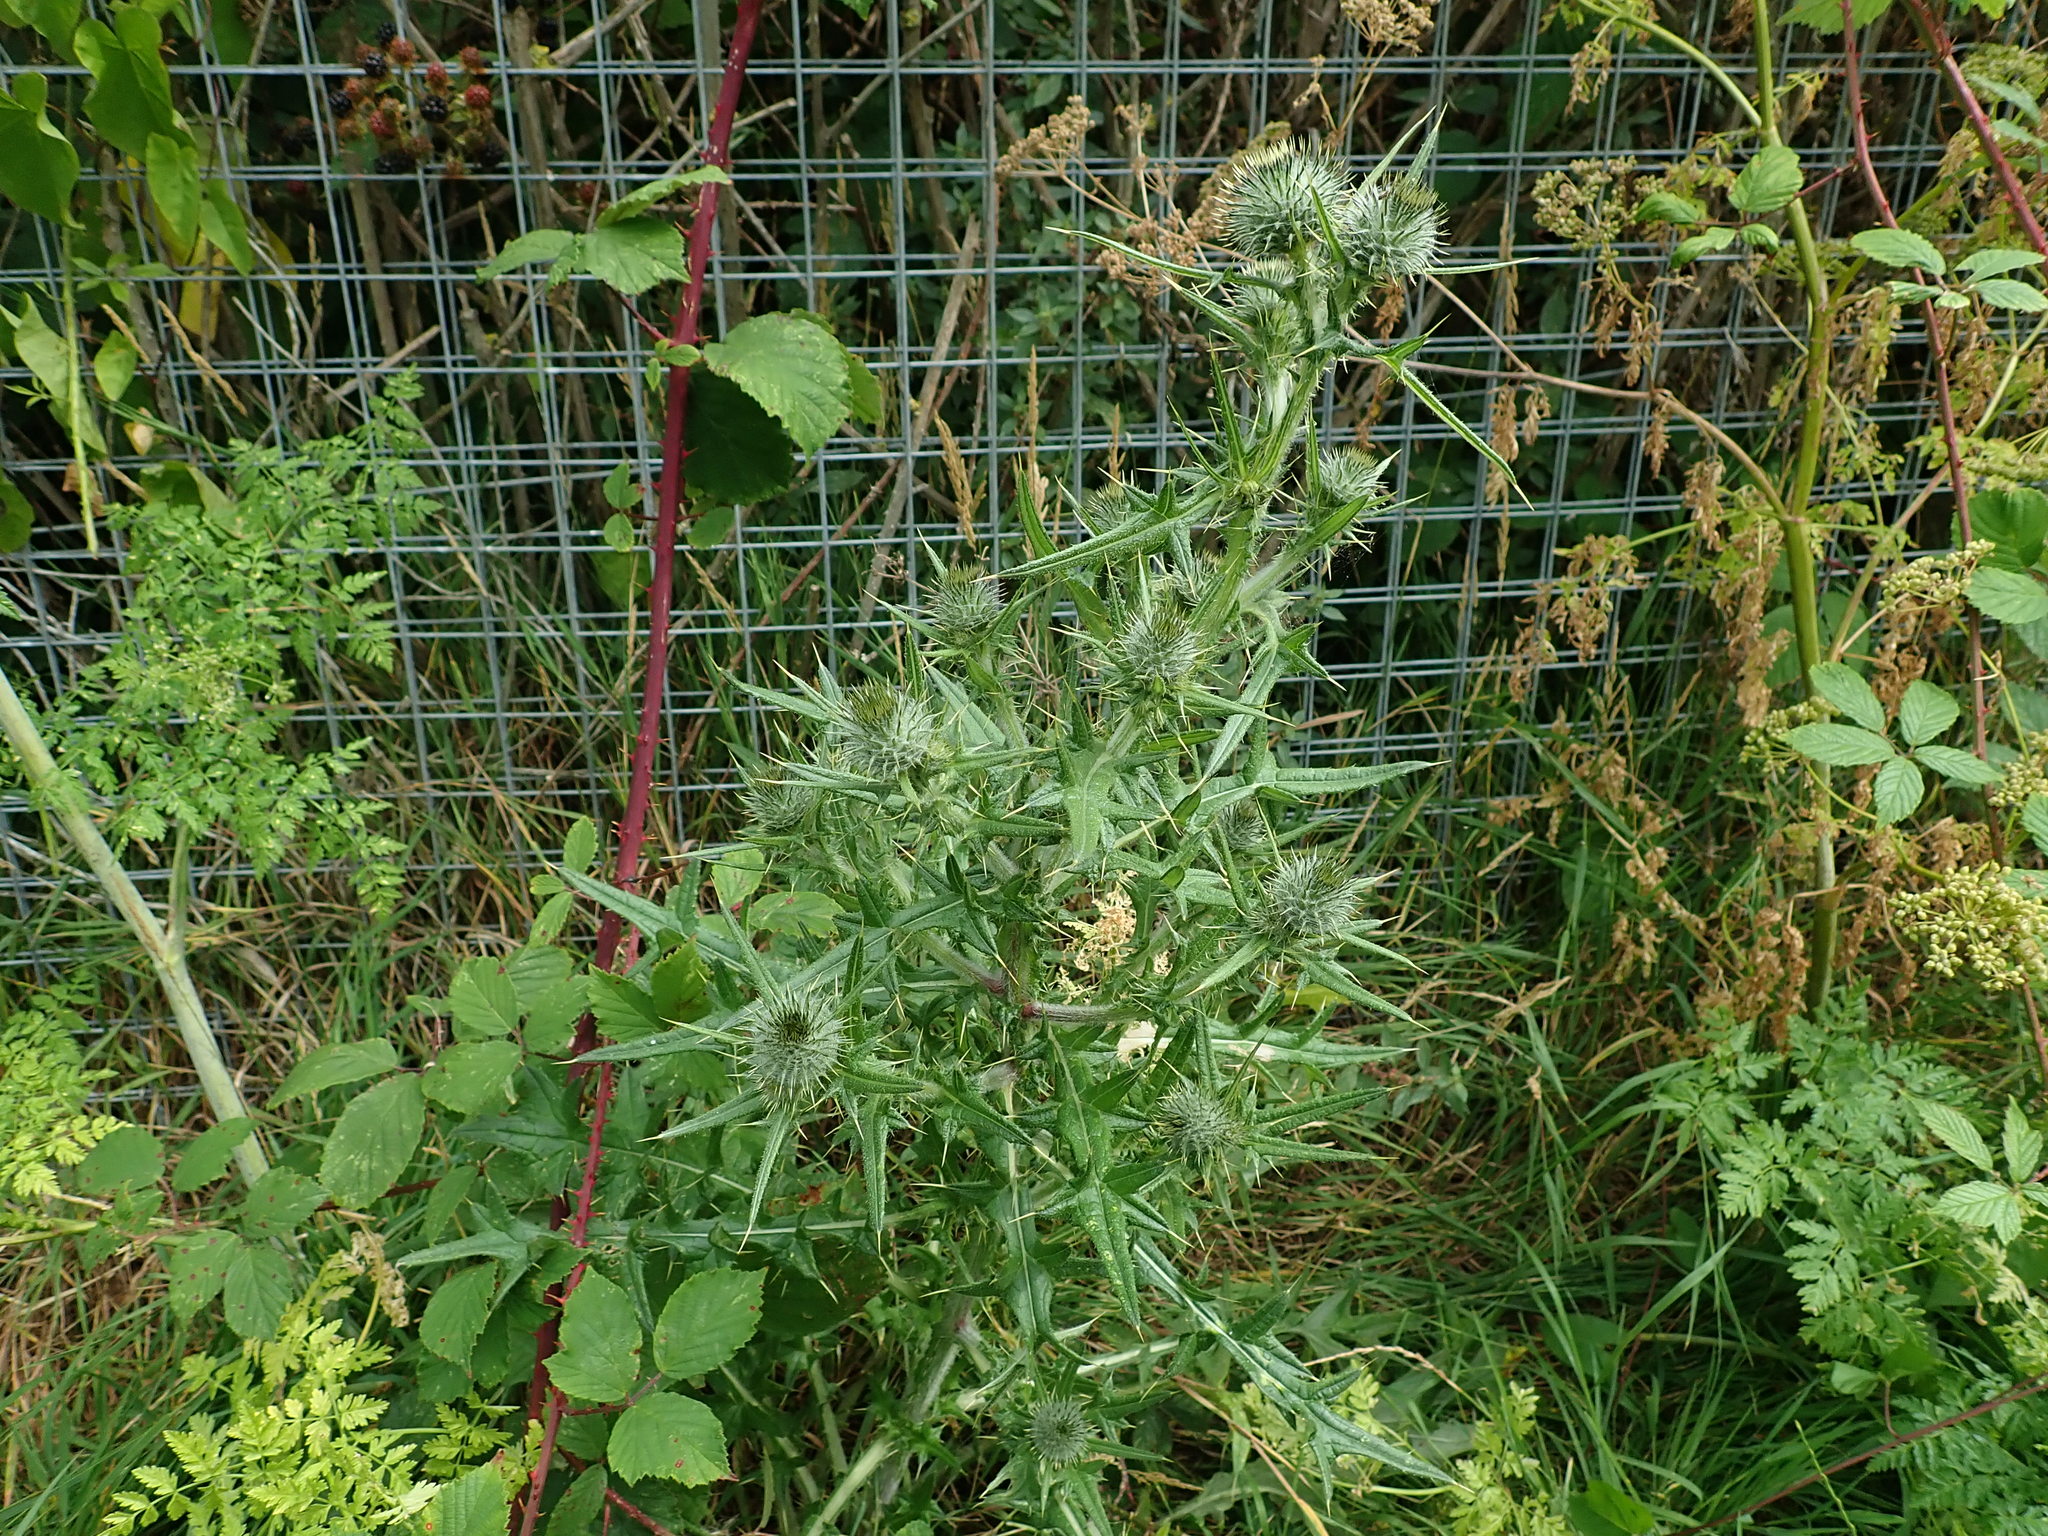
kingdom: Plantae
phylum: Tracheophyta
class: Magnoliopsida
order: Asterales
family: Asteraceae
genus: Cirsium
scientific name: Cirsium vulgare
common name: Bull thistle
